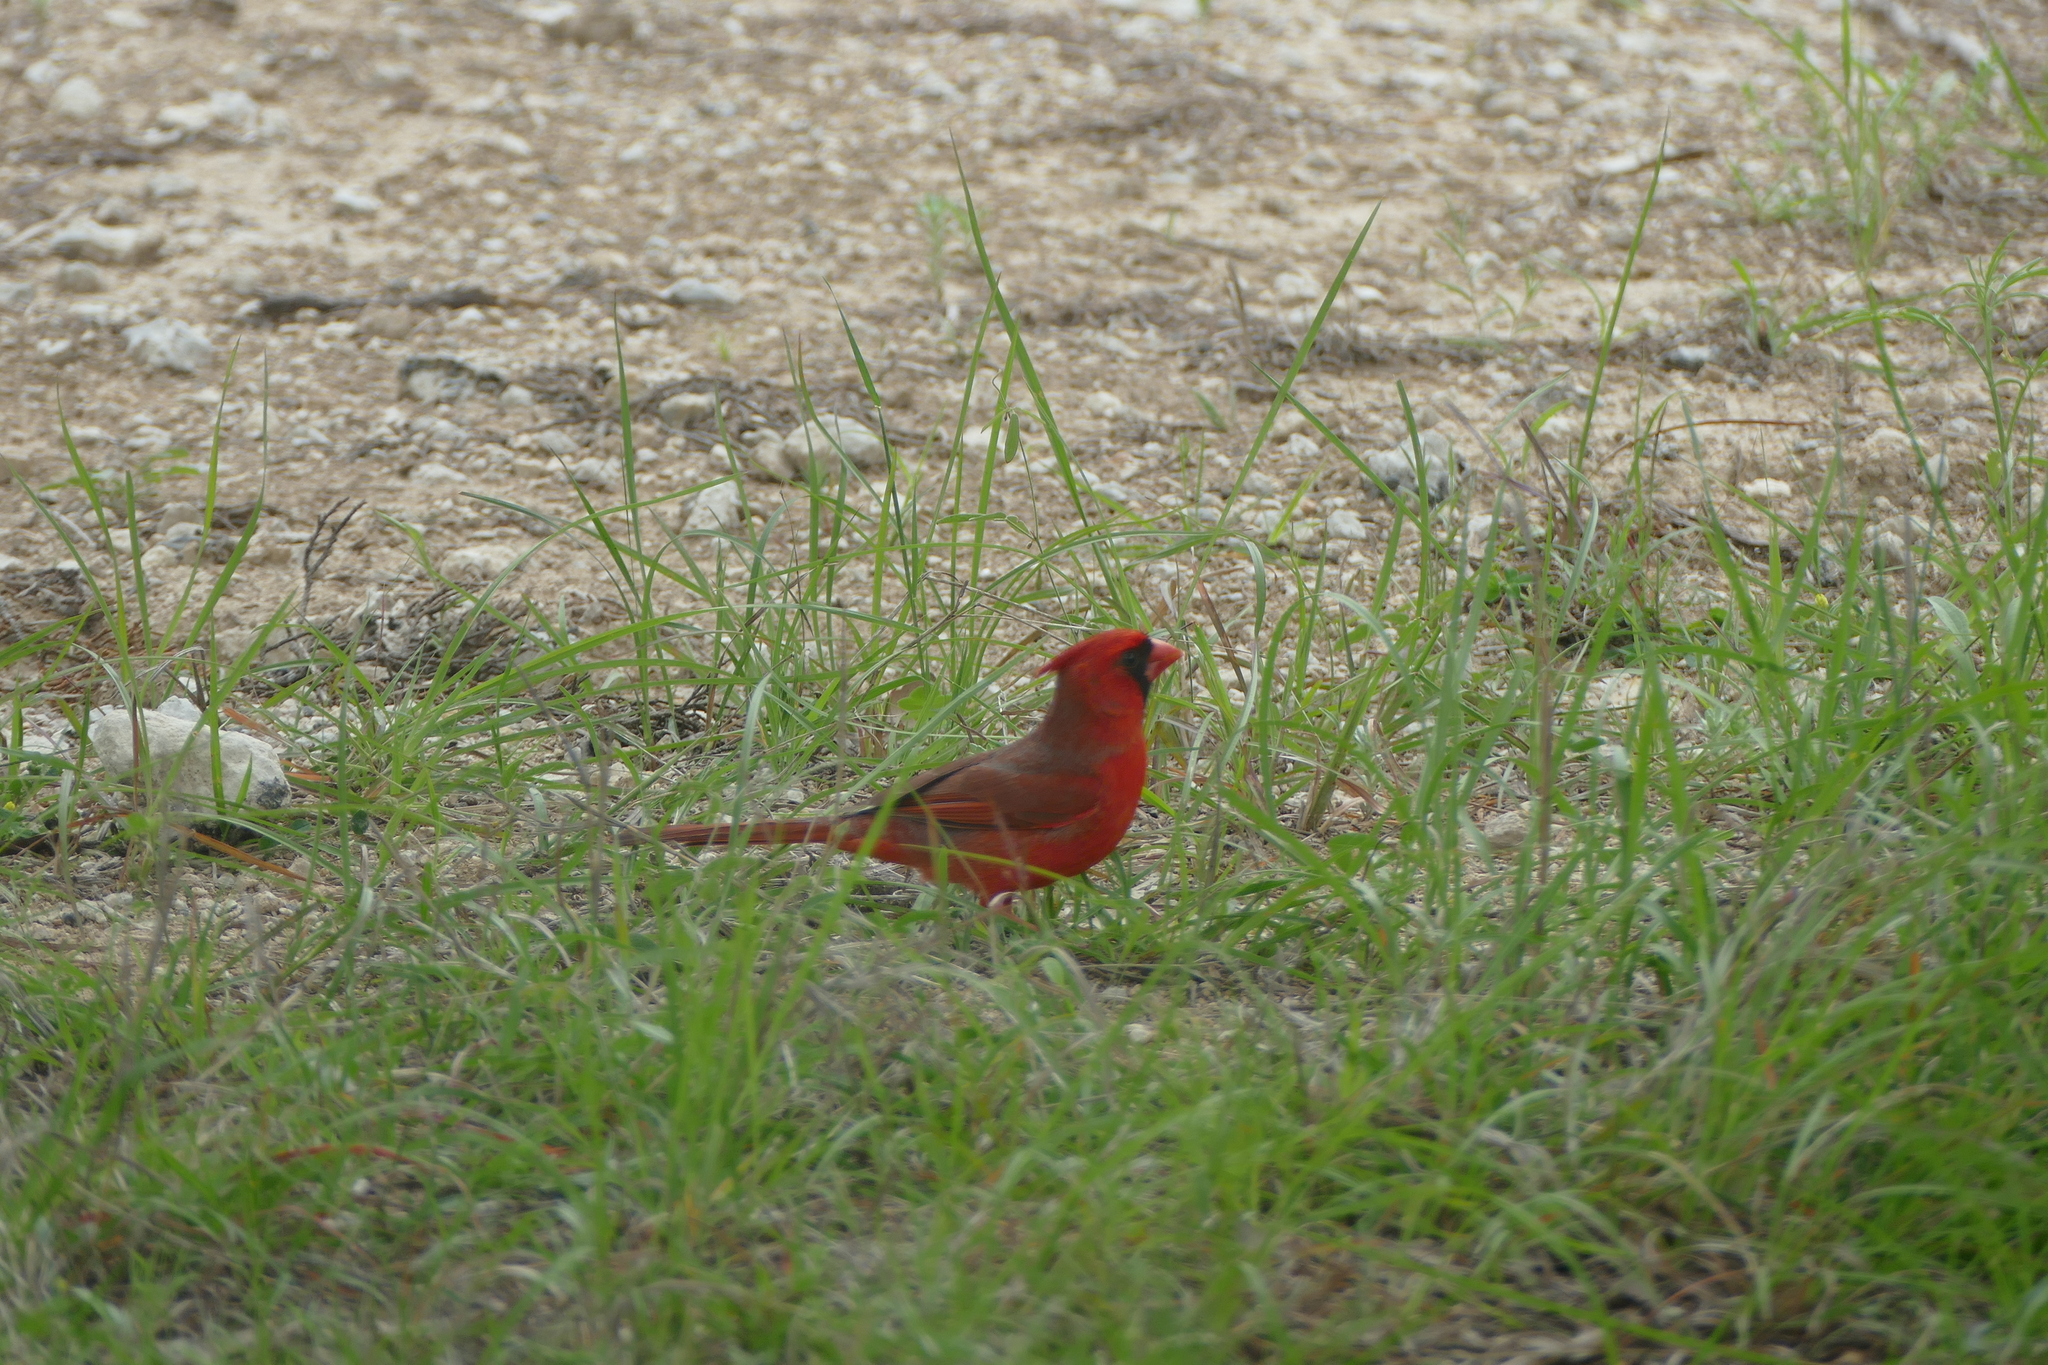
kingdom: Animalia
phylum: Chordata
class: Aves
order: Passeriformes
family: Cardinalidae
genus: Cardinalis
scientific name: Cardinalis cardinalis
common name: Northern cardinal
